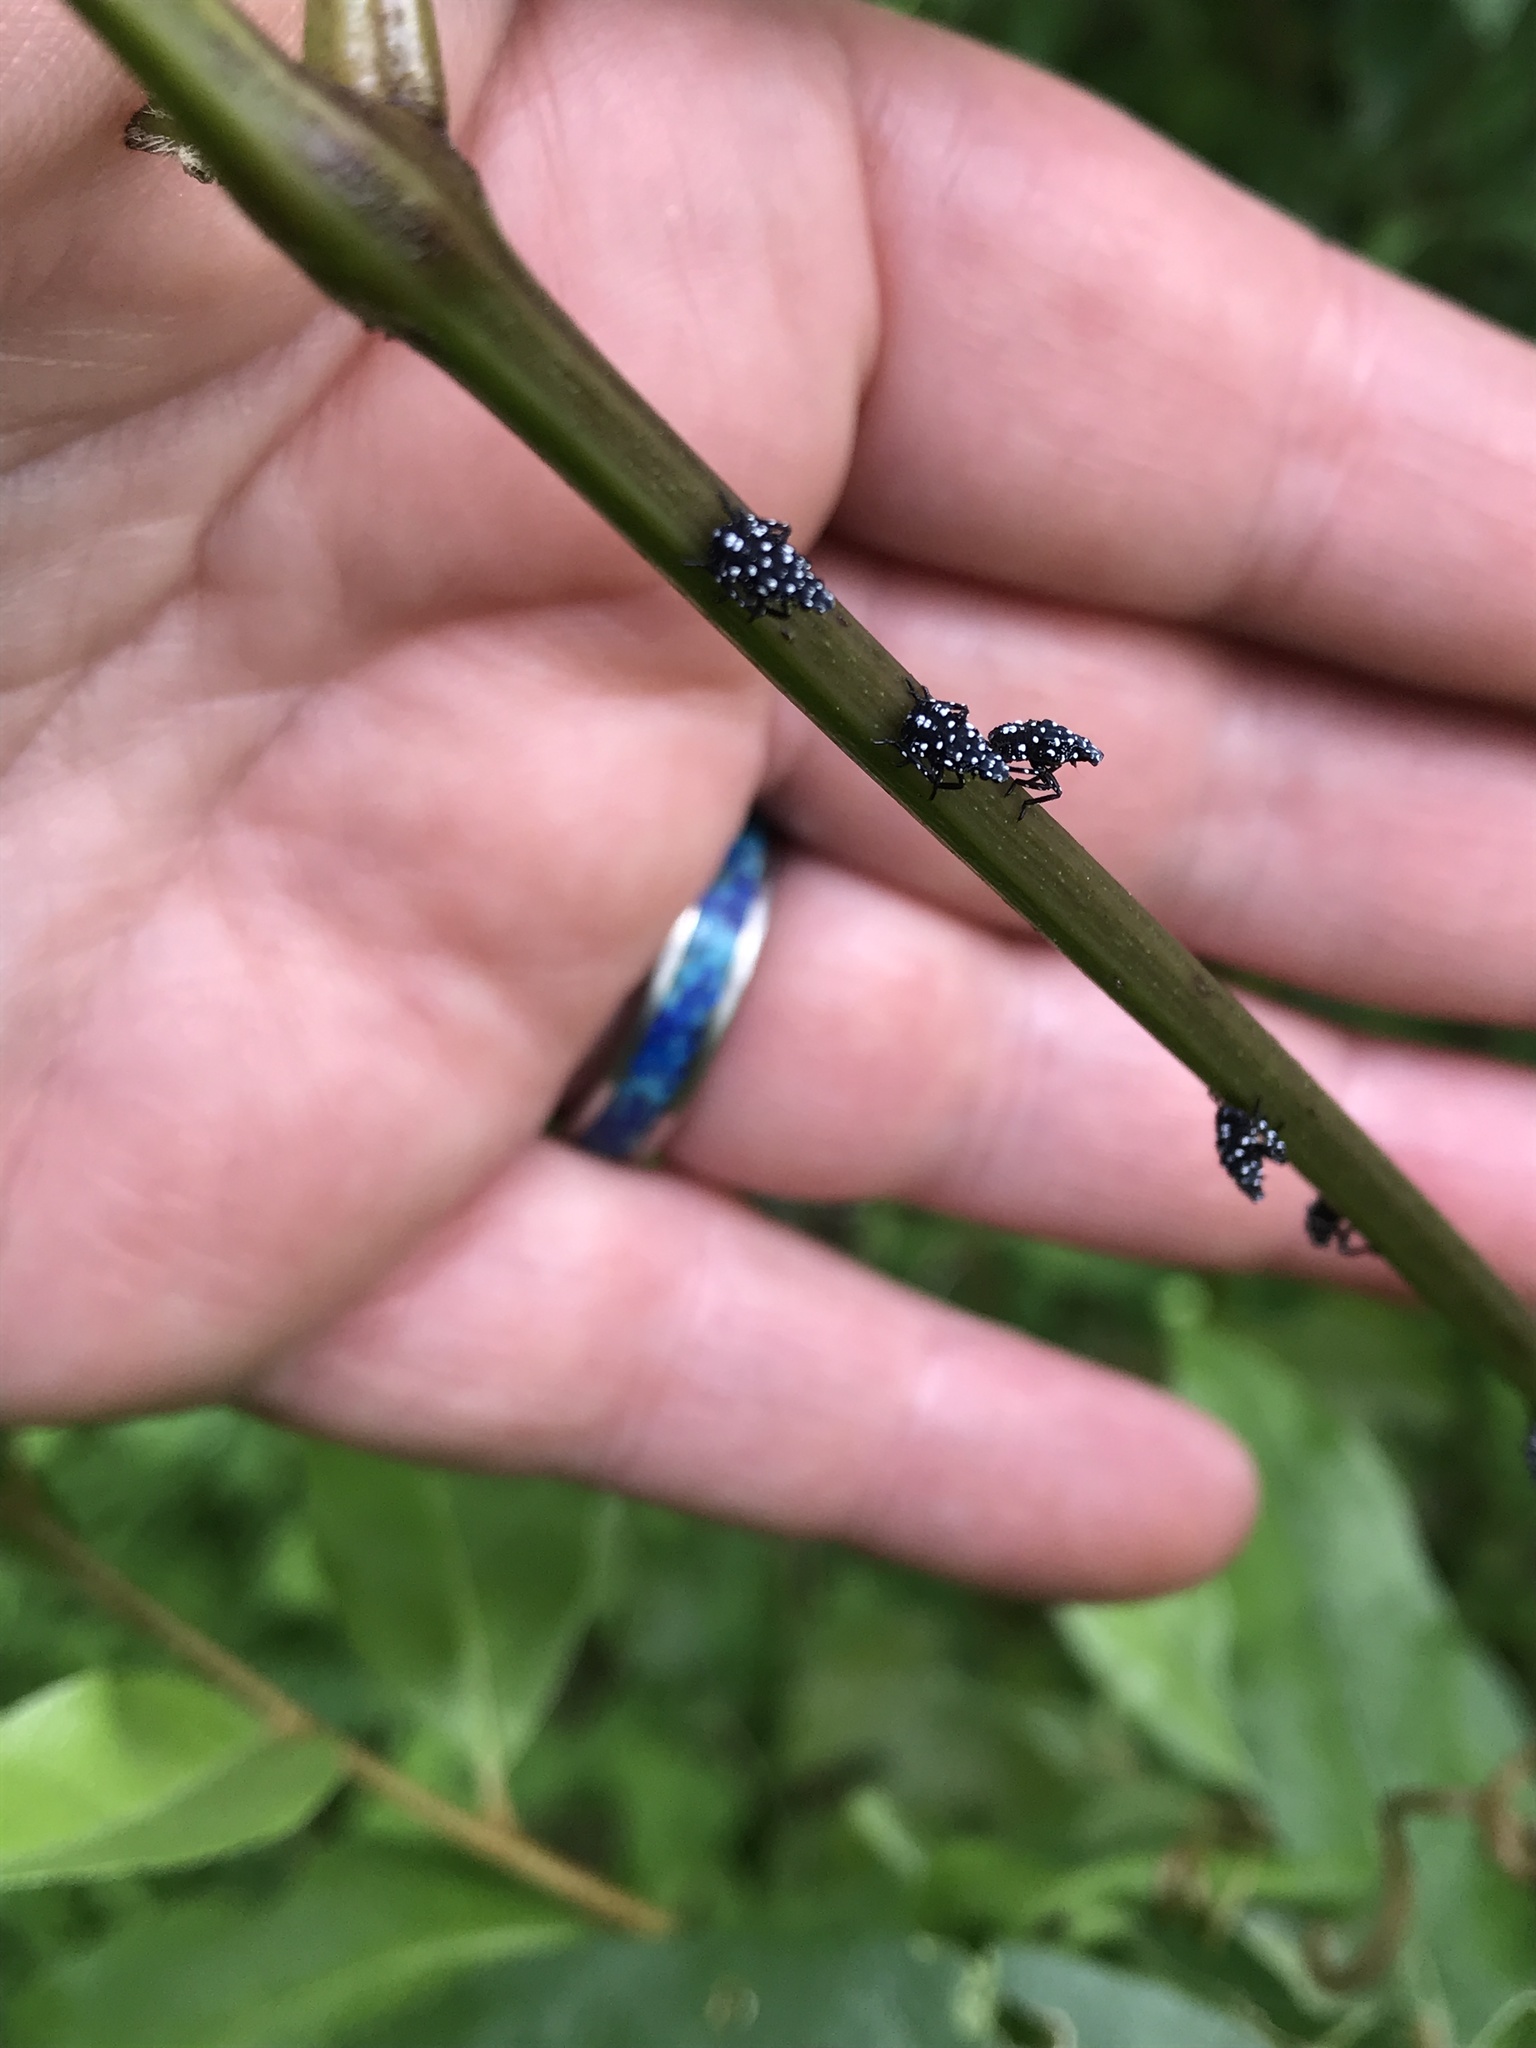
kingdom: Animalia
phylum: Arthropoda
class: Insecta
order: Hemiptera
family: Fulgoridae
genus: Lycorma
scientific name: Lycorma delicatula
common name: Spotted lanternfly
